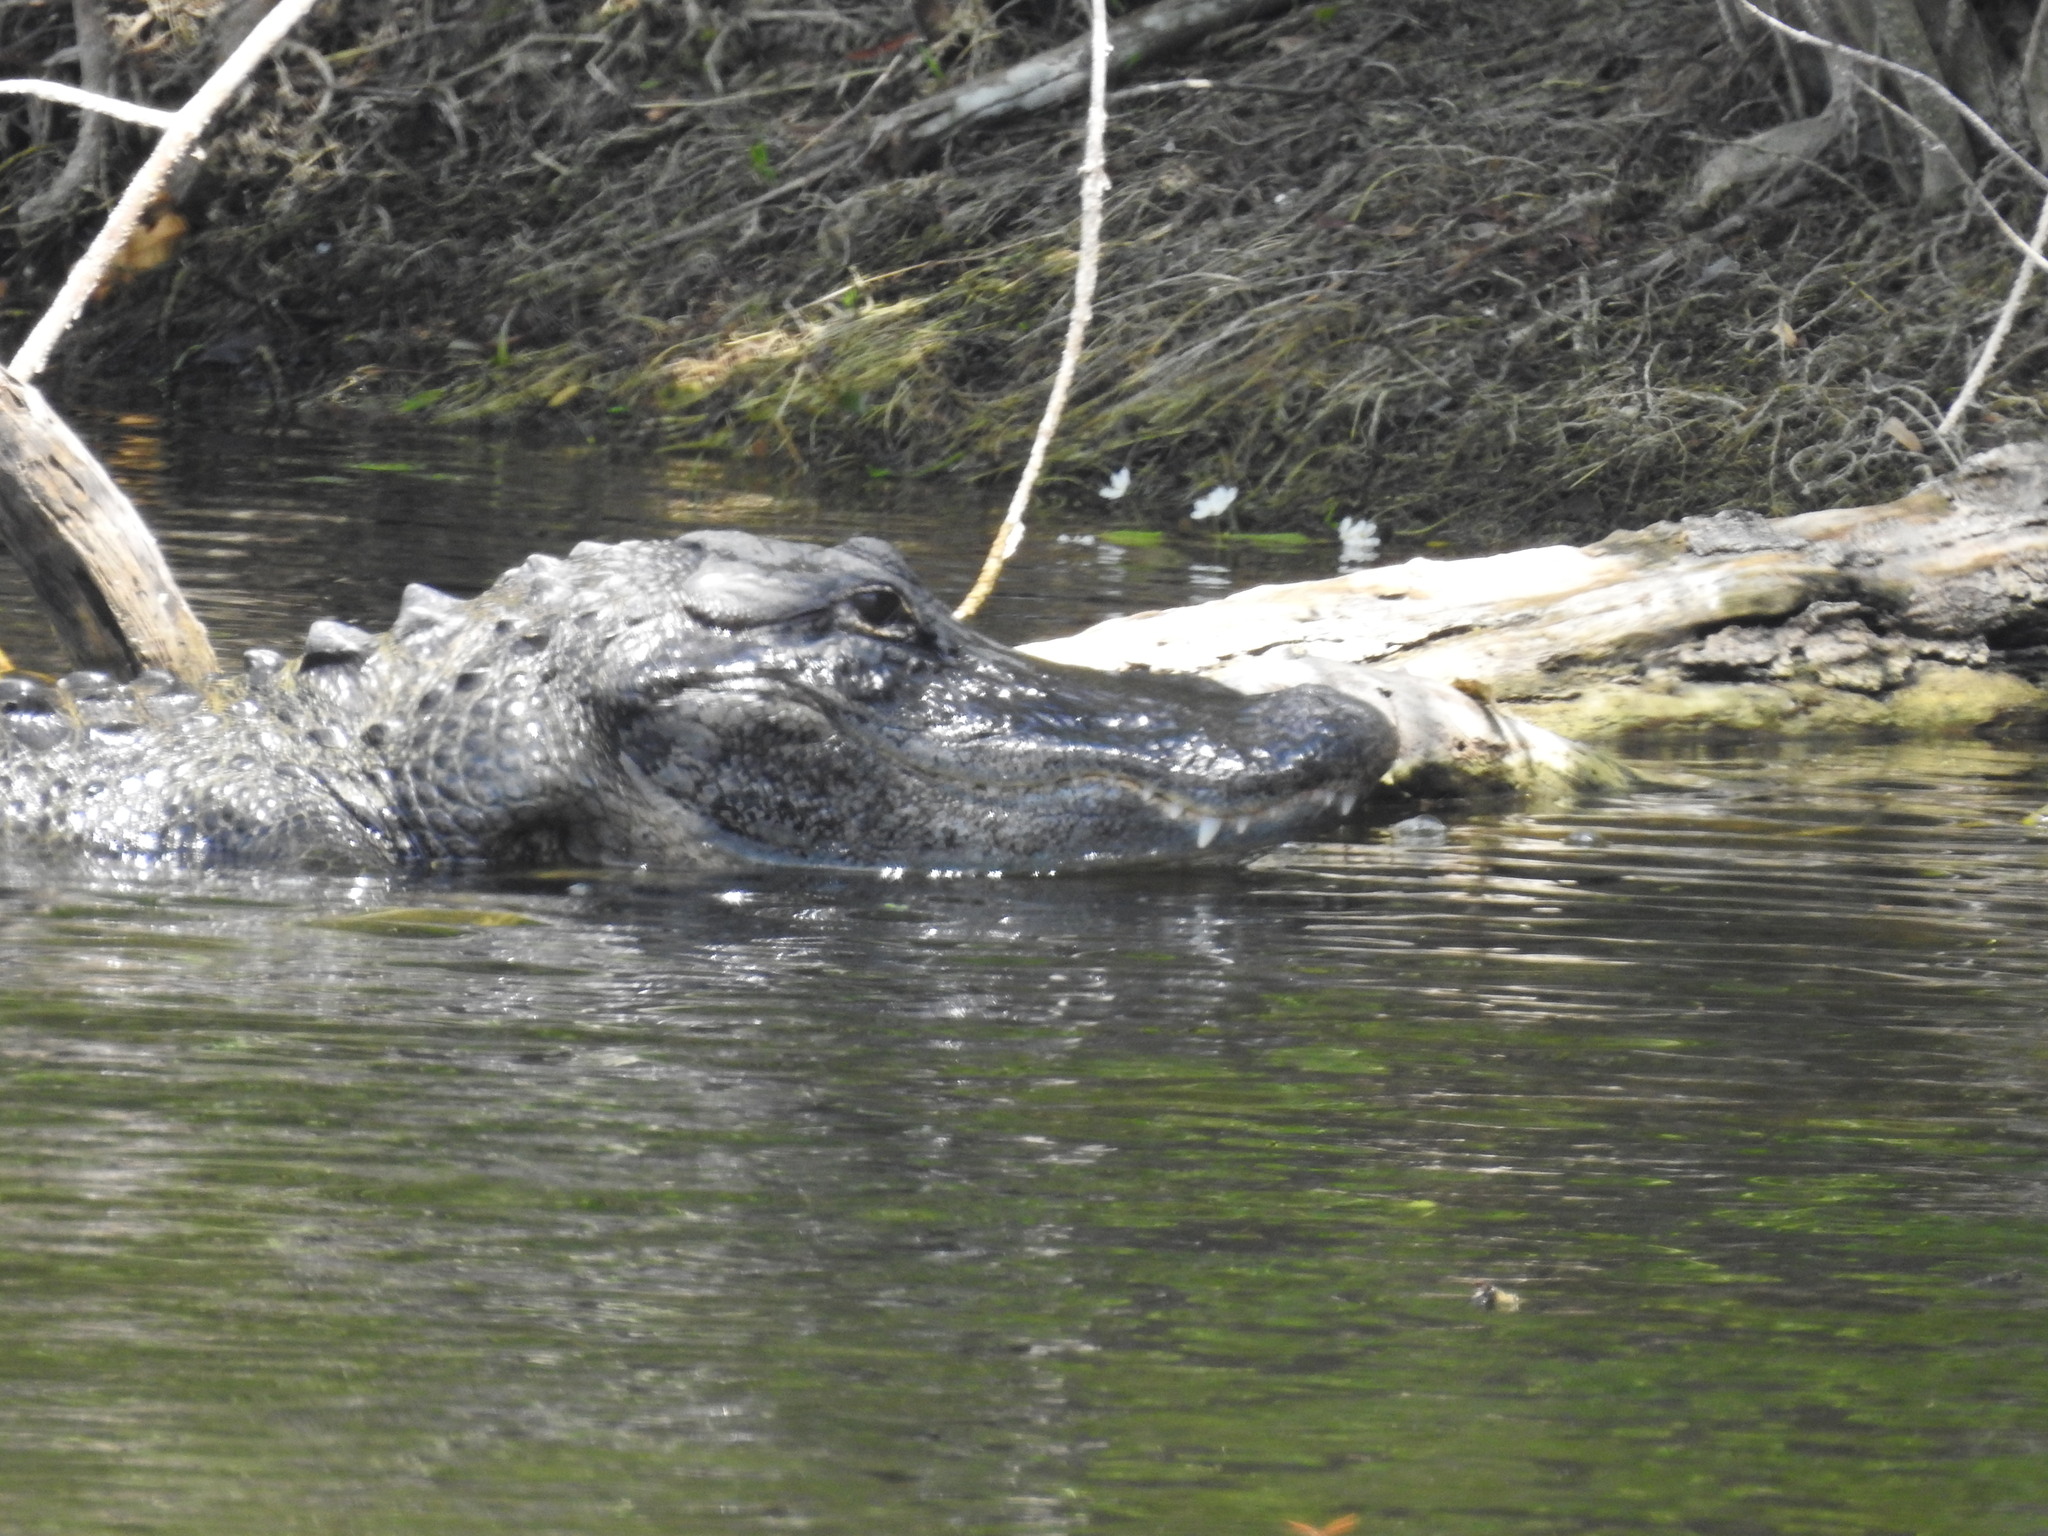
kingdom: Animalia
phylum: Chordata
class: Crocodylia
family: Alligatoridae
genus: Alligator
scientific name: Alligator mississippiensis
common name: American alligator
